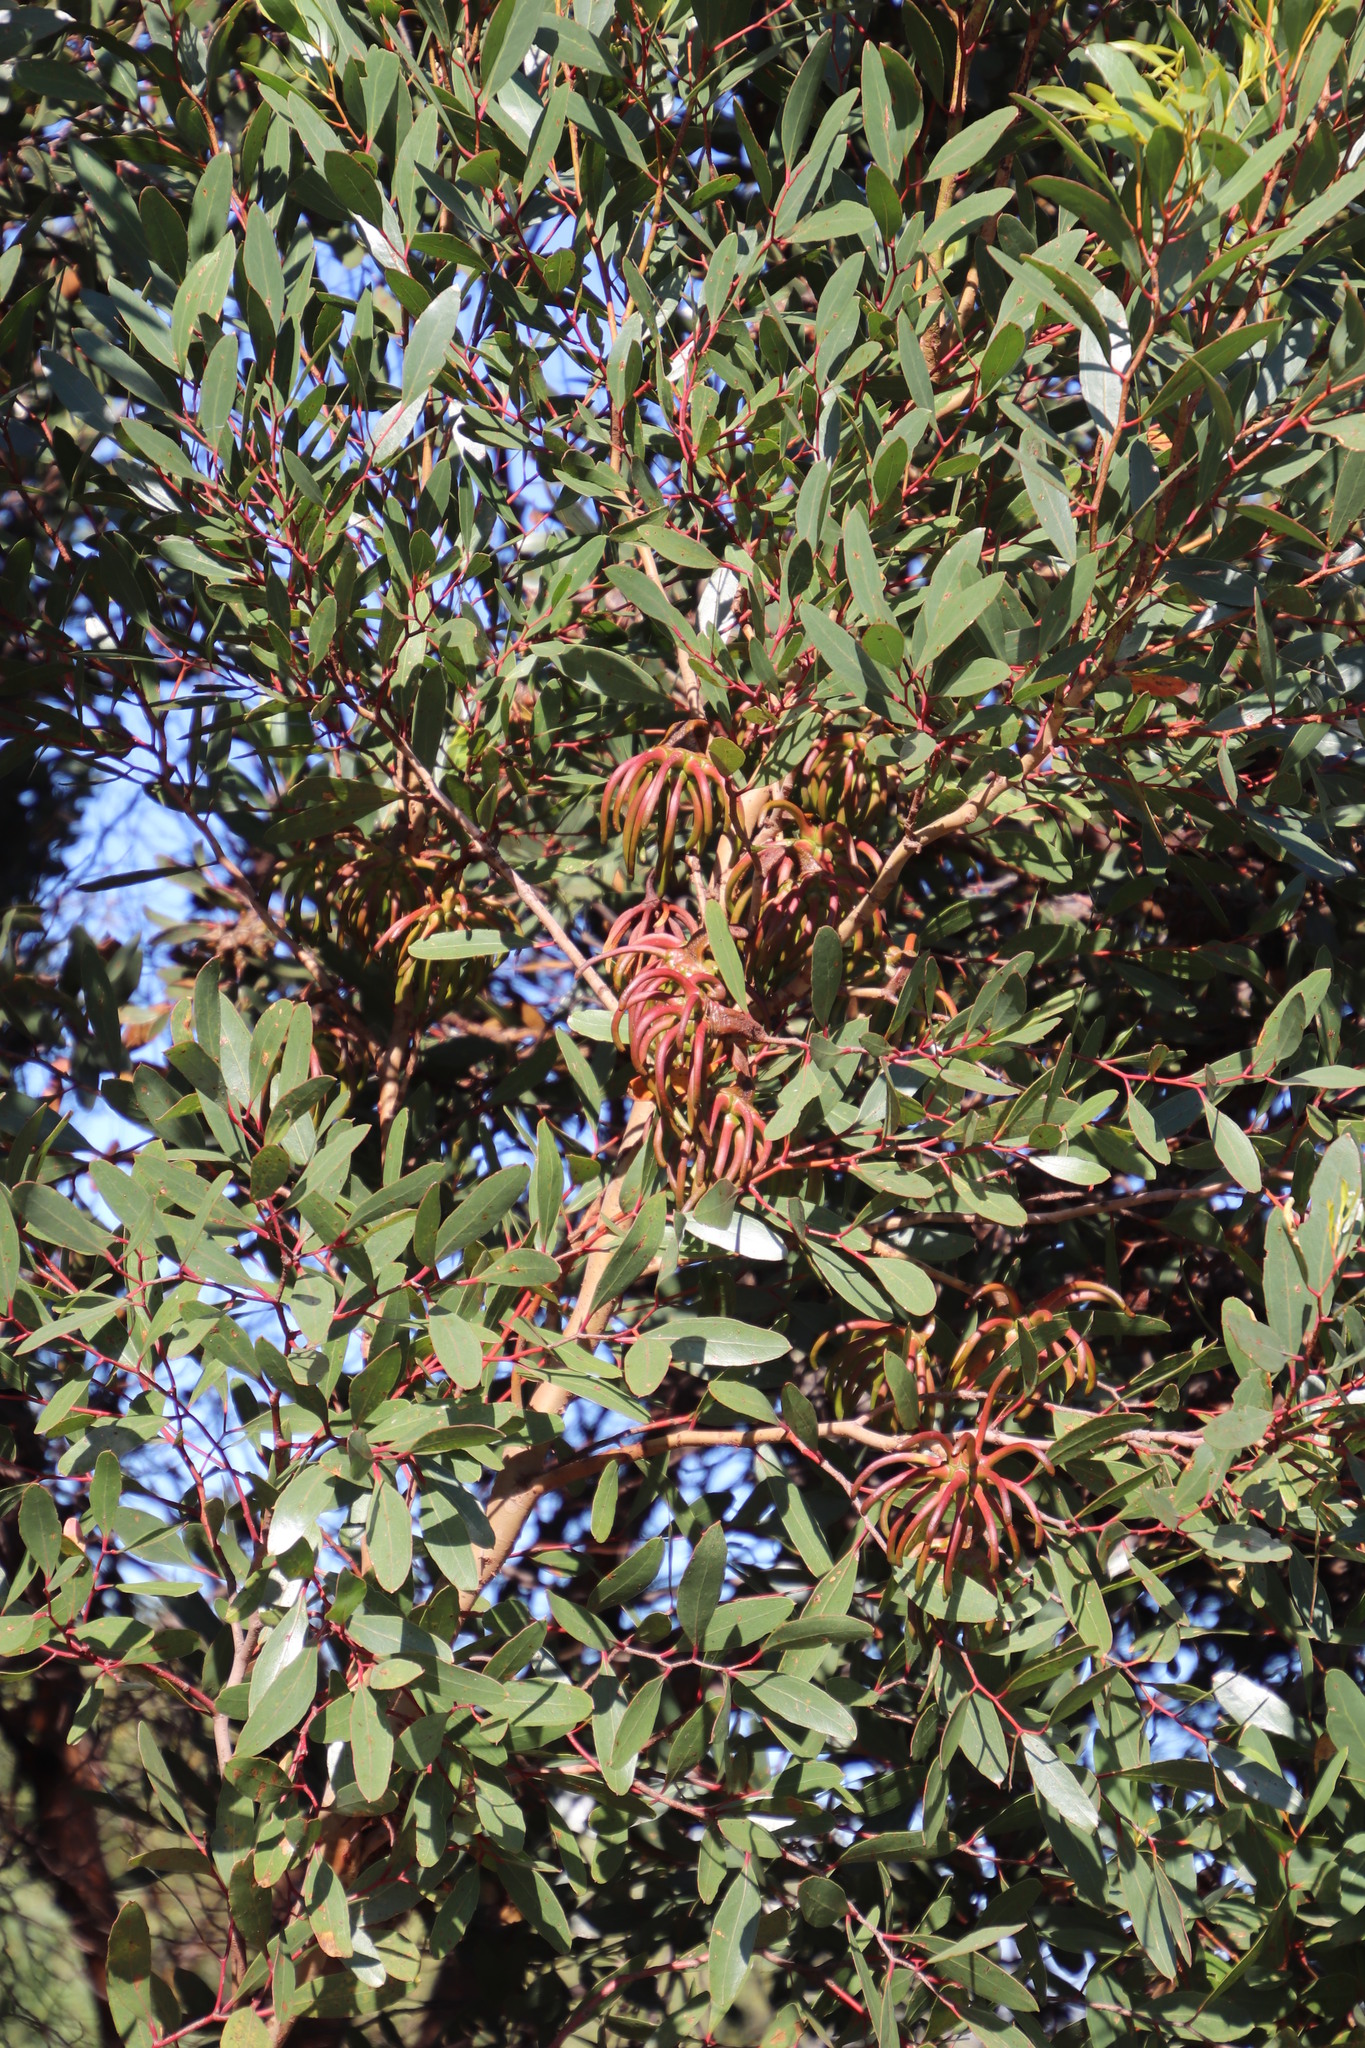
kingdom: Plantae
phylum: Tracheophyta
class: Magnoliopsida
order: Myrtales
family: Myrtaceae
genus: Eucalyptus
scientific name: Eucalyptus conferruminata
